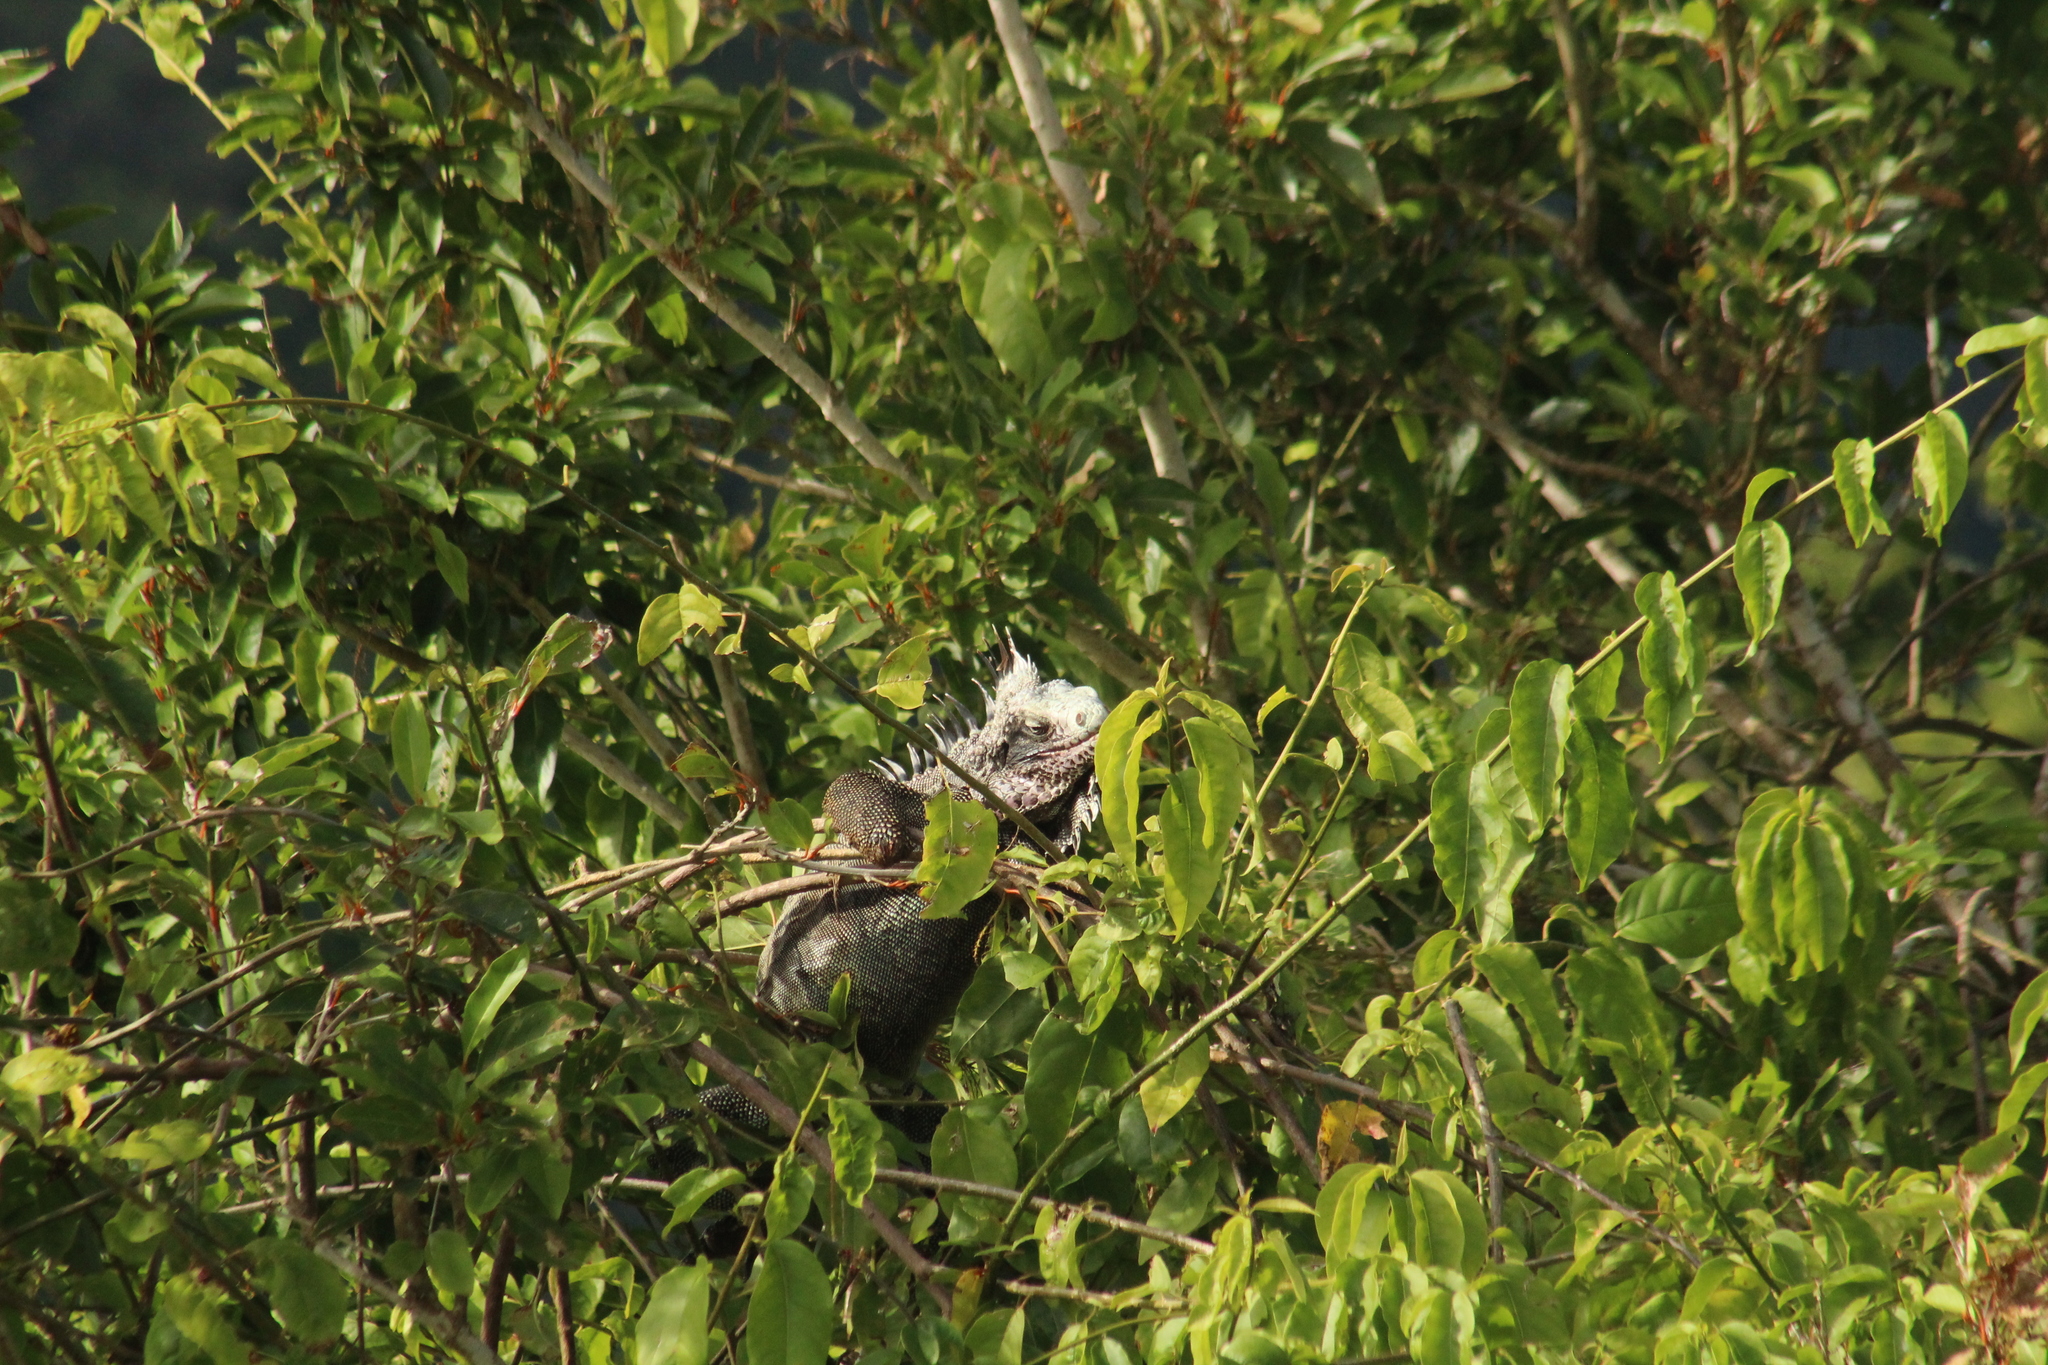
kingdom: Animalia
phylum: Chordata
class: Squamata
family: Iguanidae
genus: Iguana
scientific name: Iguana iguana
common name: Green iguana
